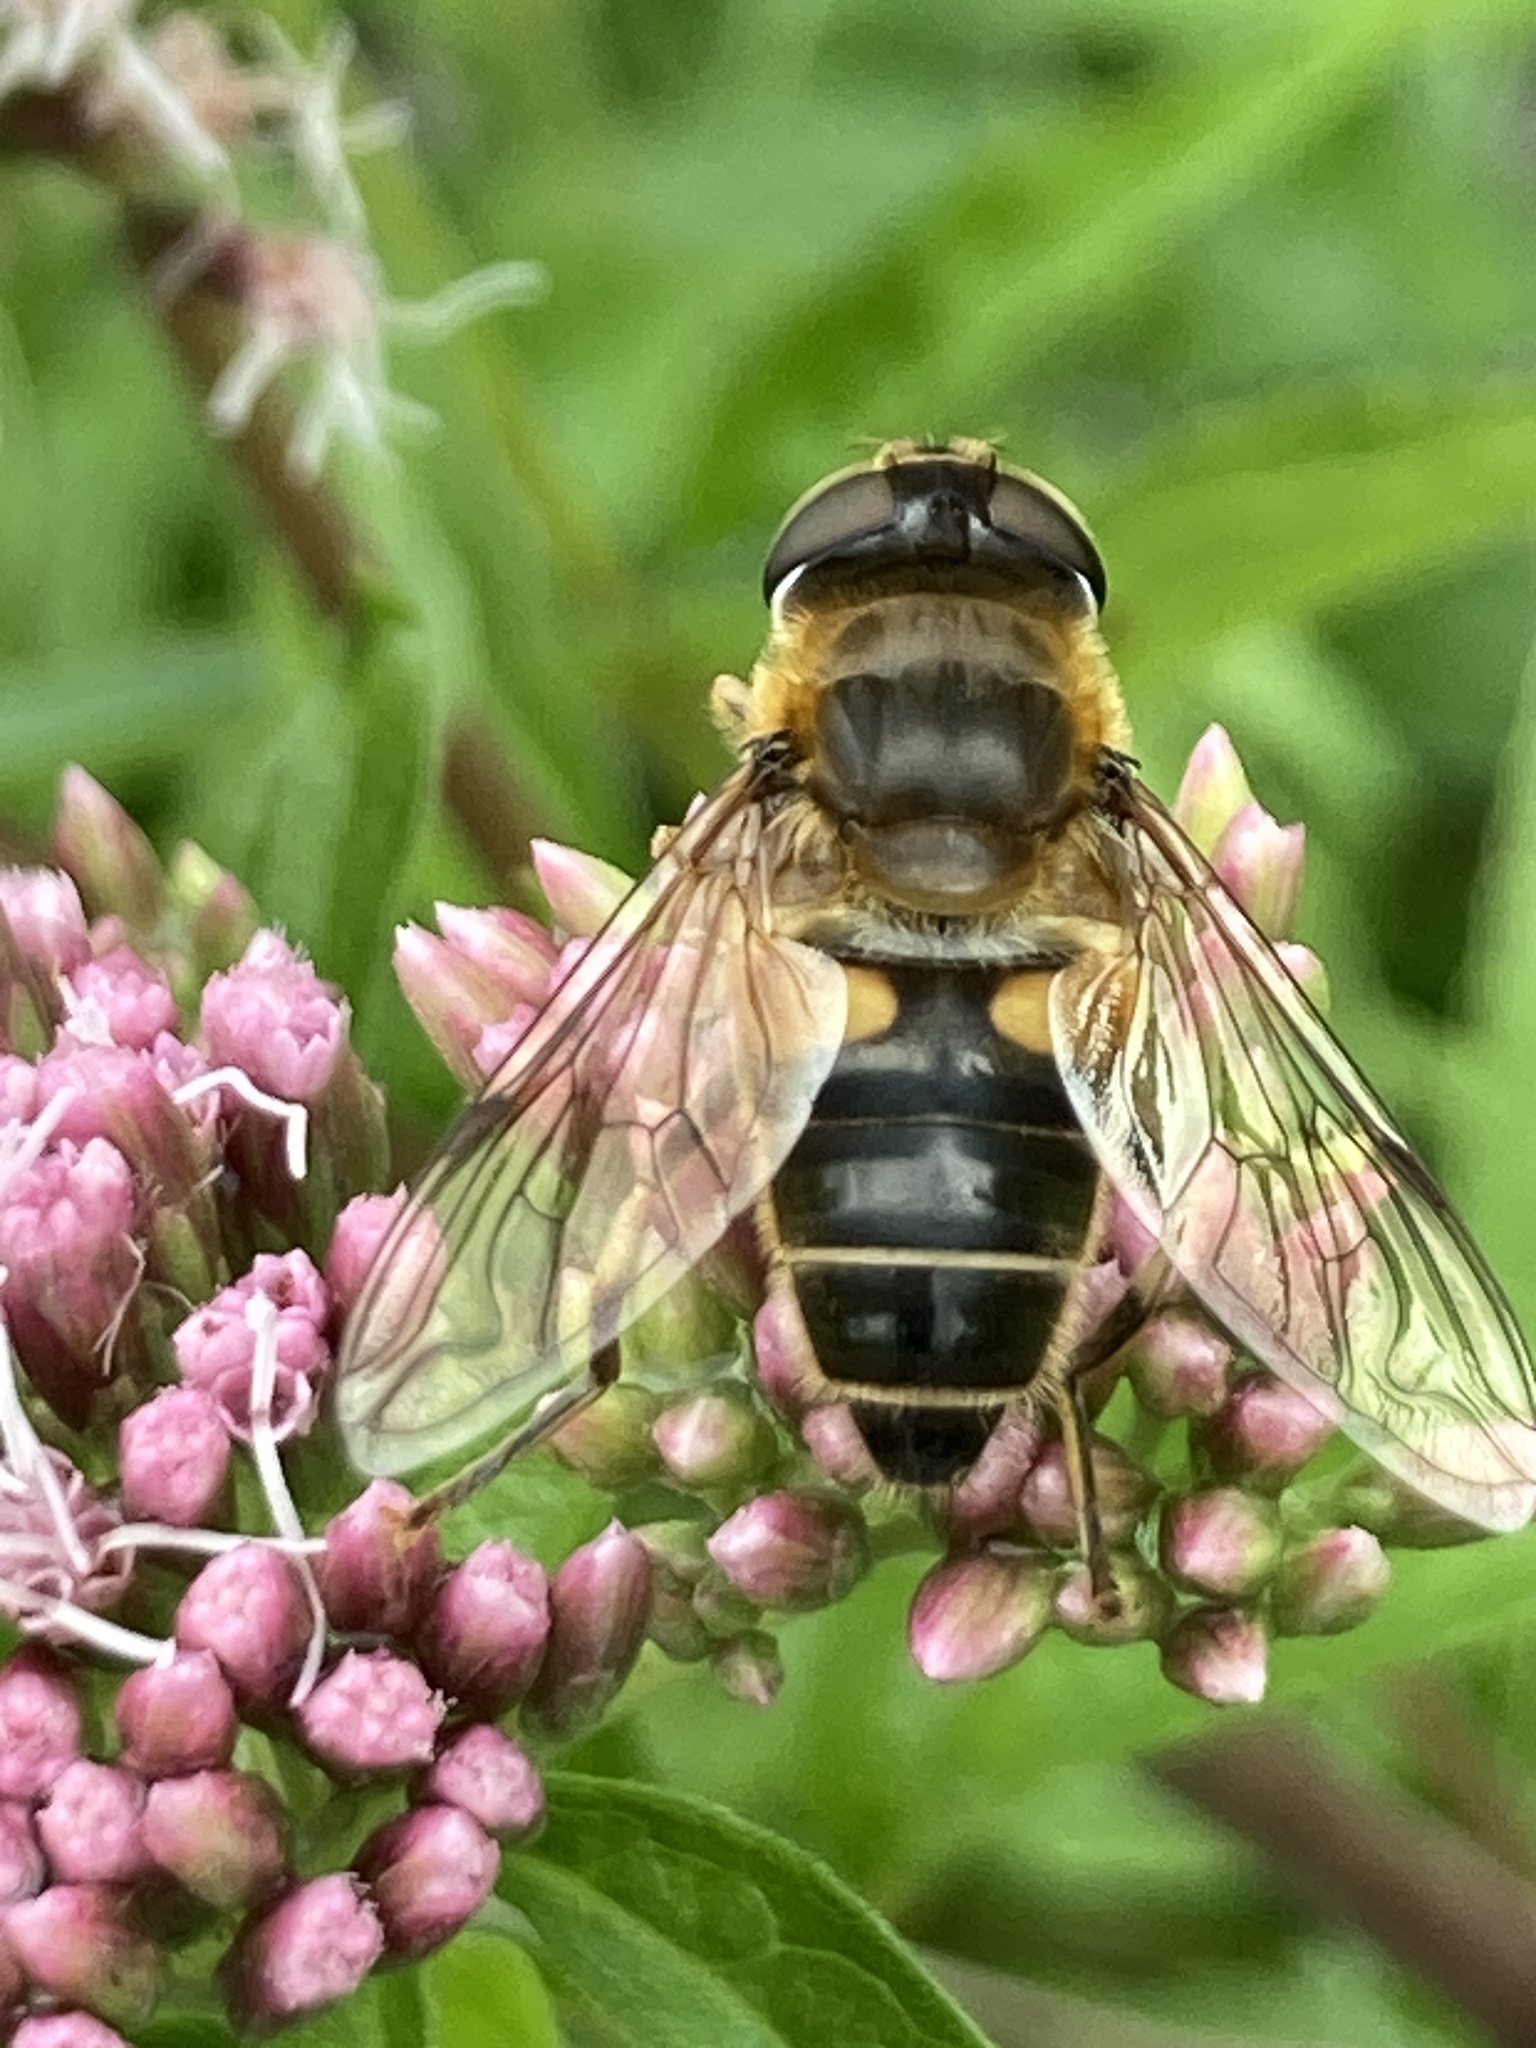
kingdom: Animalia
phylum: Arthropoda
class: Insecta
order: Diptera
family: Syrphidae
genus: Eristalis
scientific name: Eristalis pertinax
